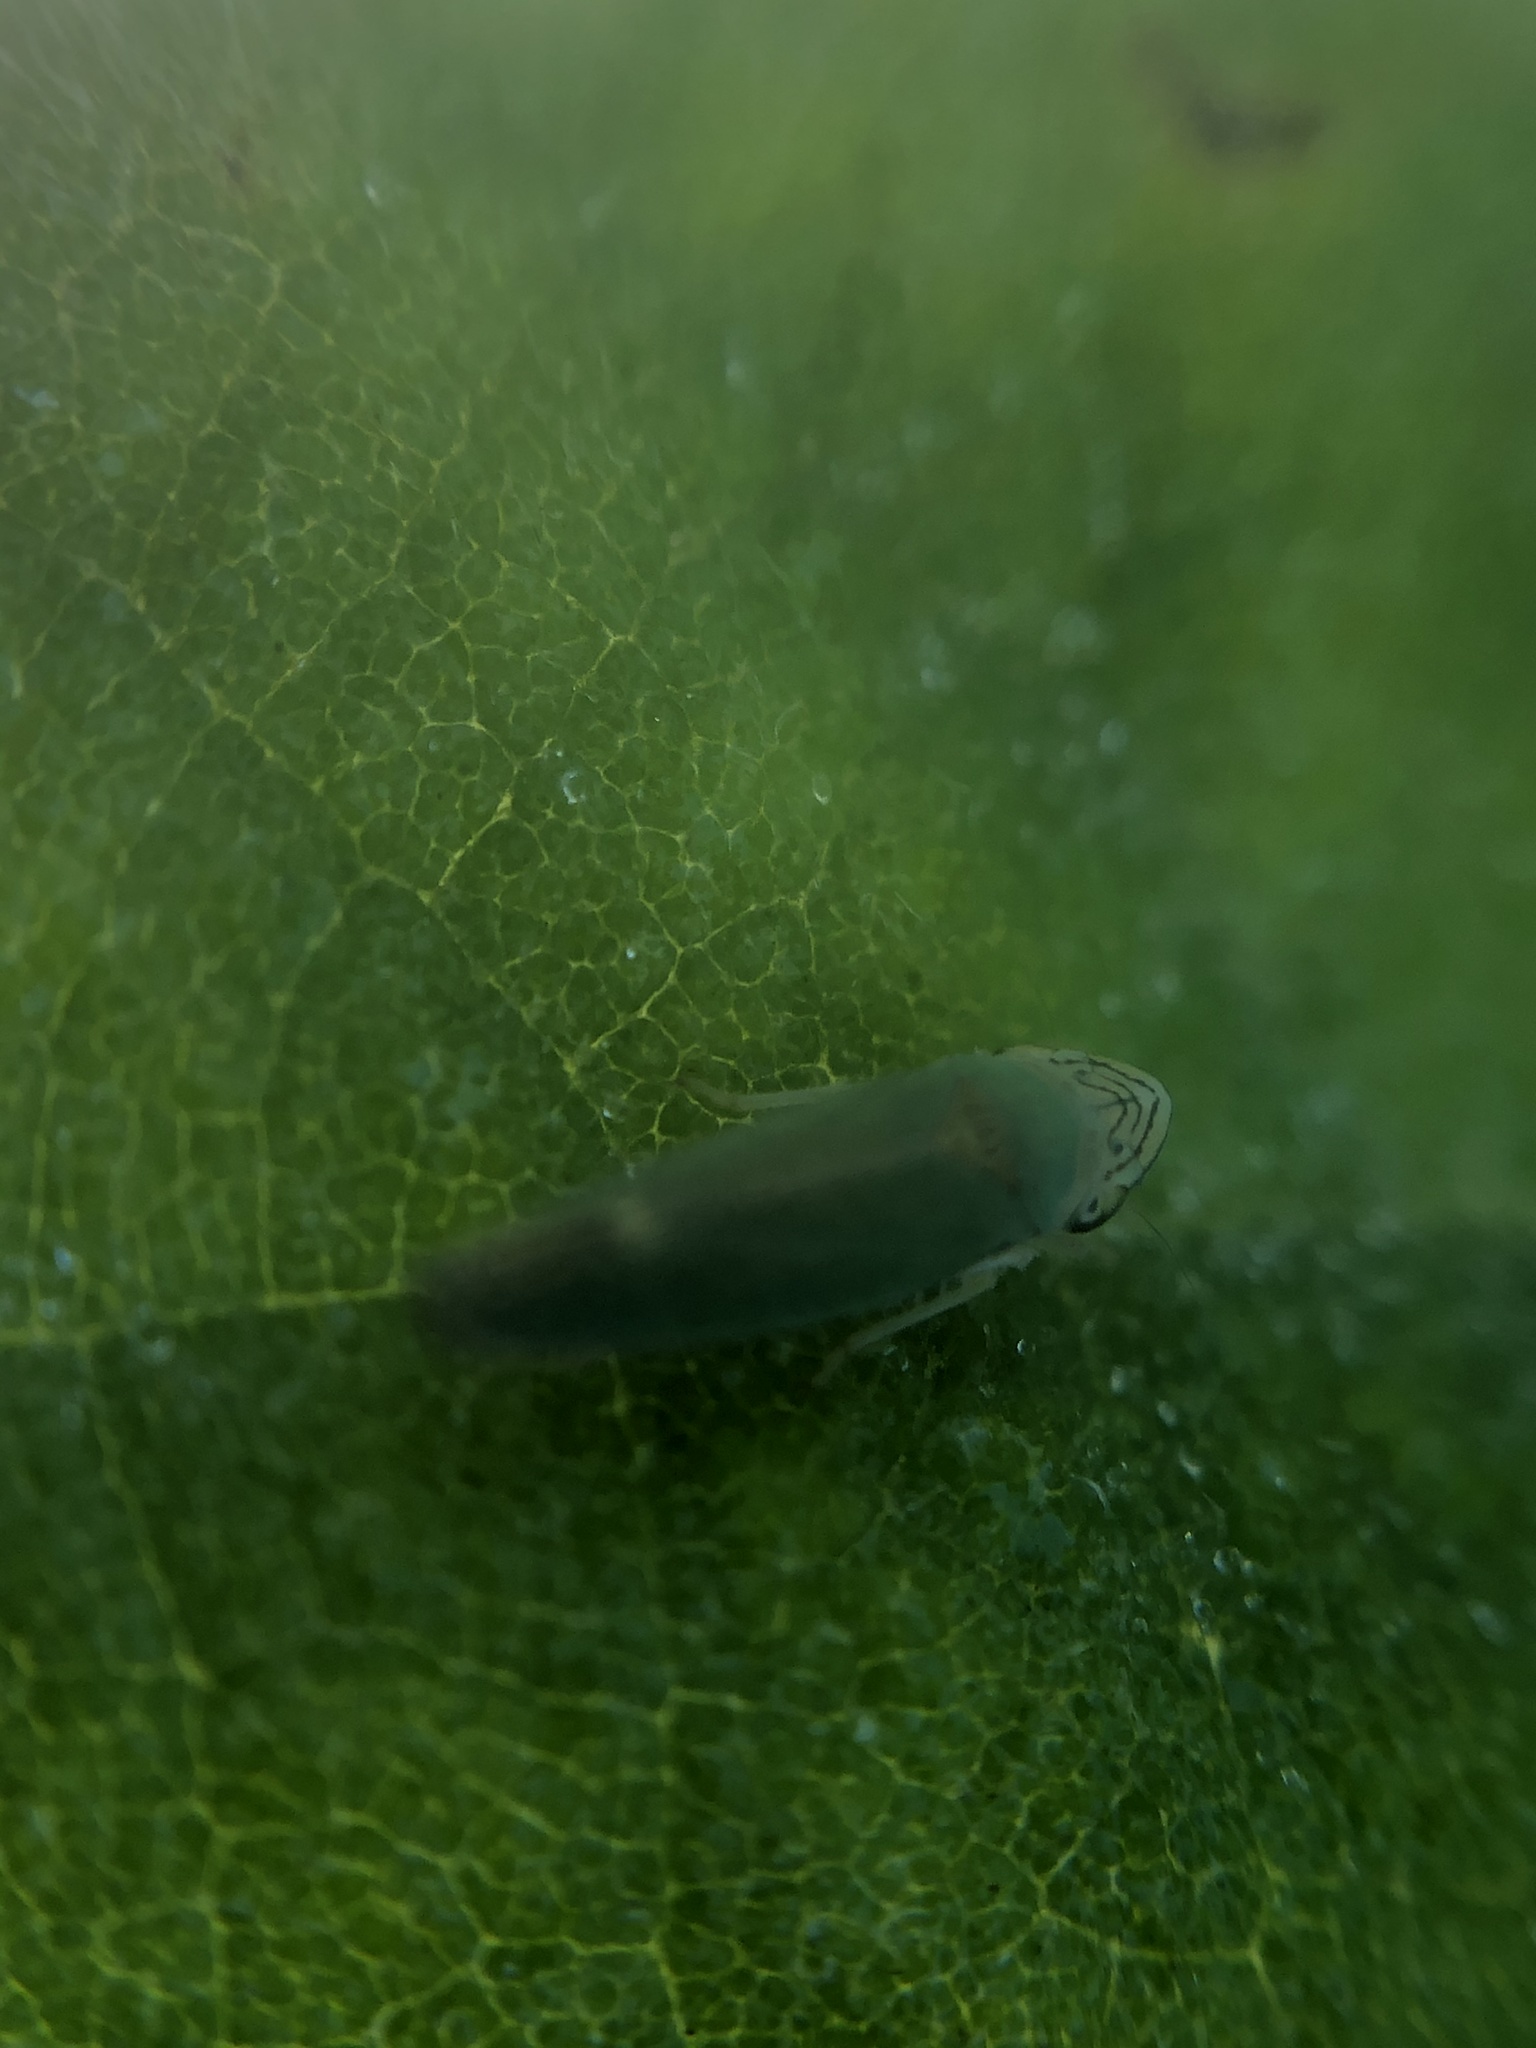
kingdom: Animalia
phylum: Arthropoda
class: Insecta
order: Hemiptera
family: Cicadellidae
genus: Graphogonalia
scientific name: Graphogonalia evagorata
